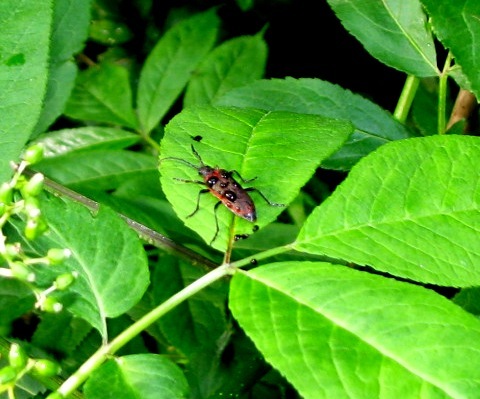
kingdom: Animalia
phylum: Arthropoda
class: Insecta
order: Coleoptera
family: Cerambycidae
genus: Desmocerus
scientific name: Desmocerus aureipennis
